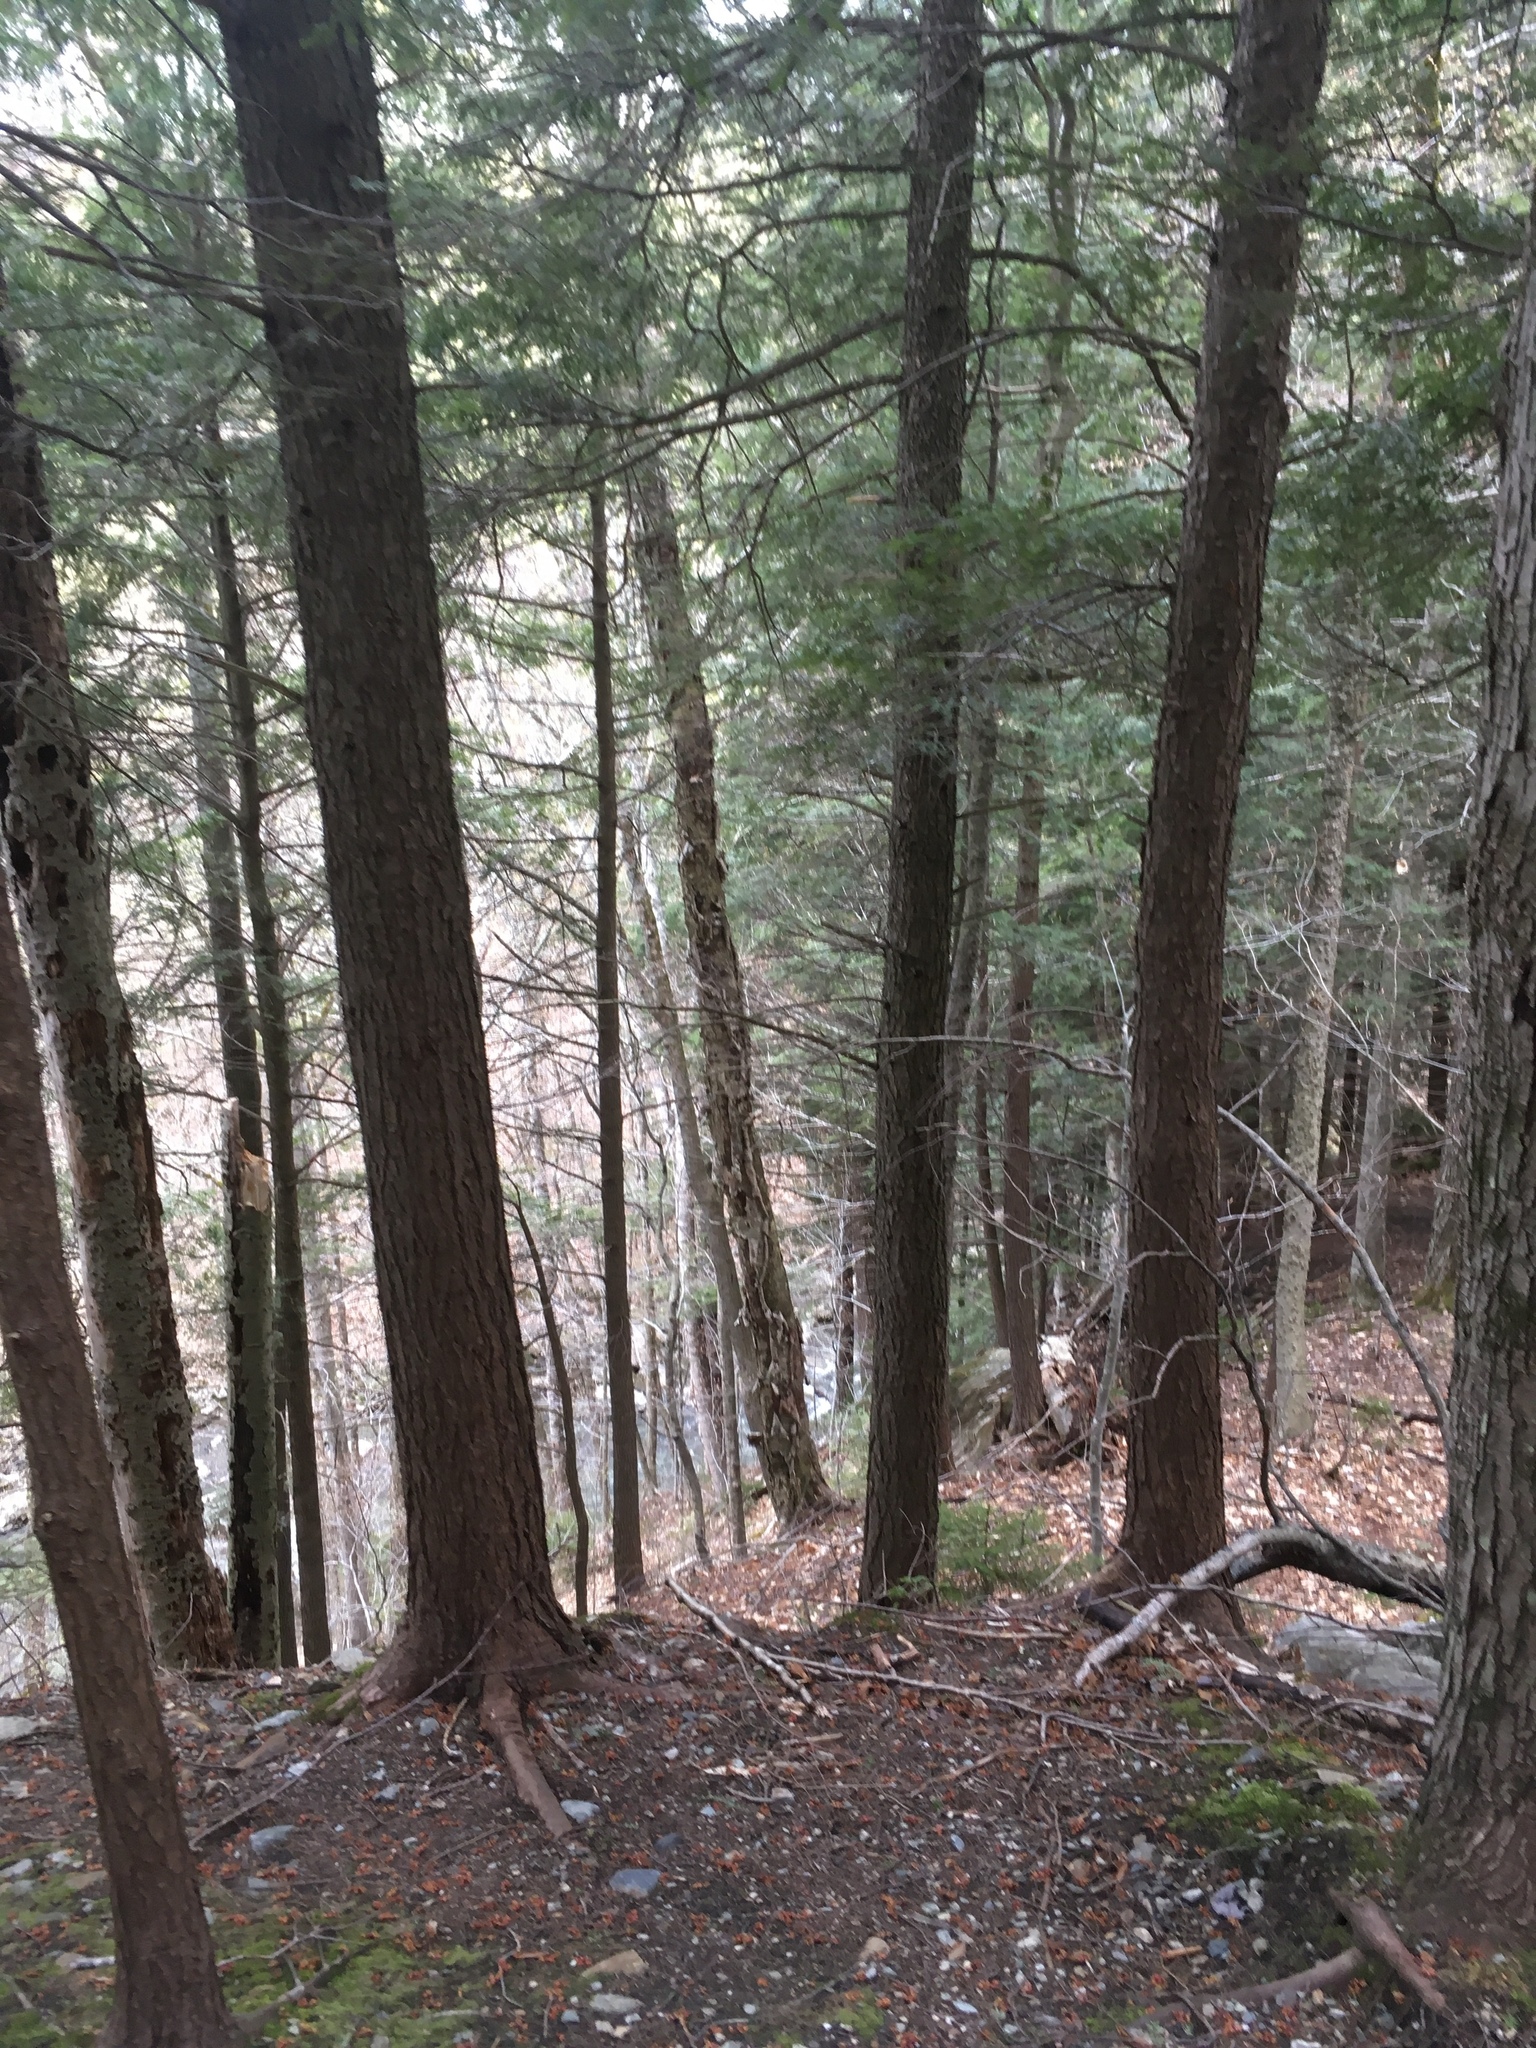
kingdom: Plantae
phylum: Tracheophyta
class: Pinopsida
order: Pinales
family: Pinaceae
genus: Tsuga
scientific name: Tsuga canadensis
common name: Eastern hemlock
